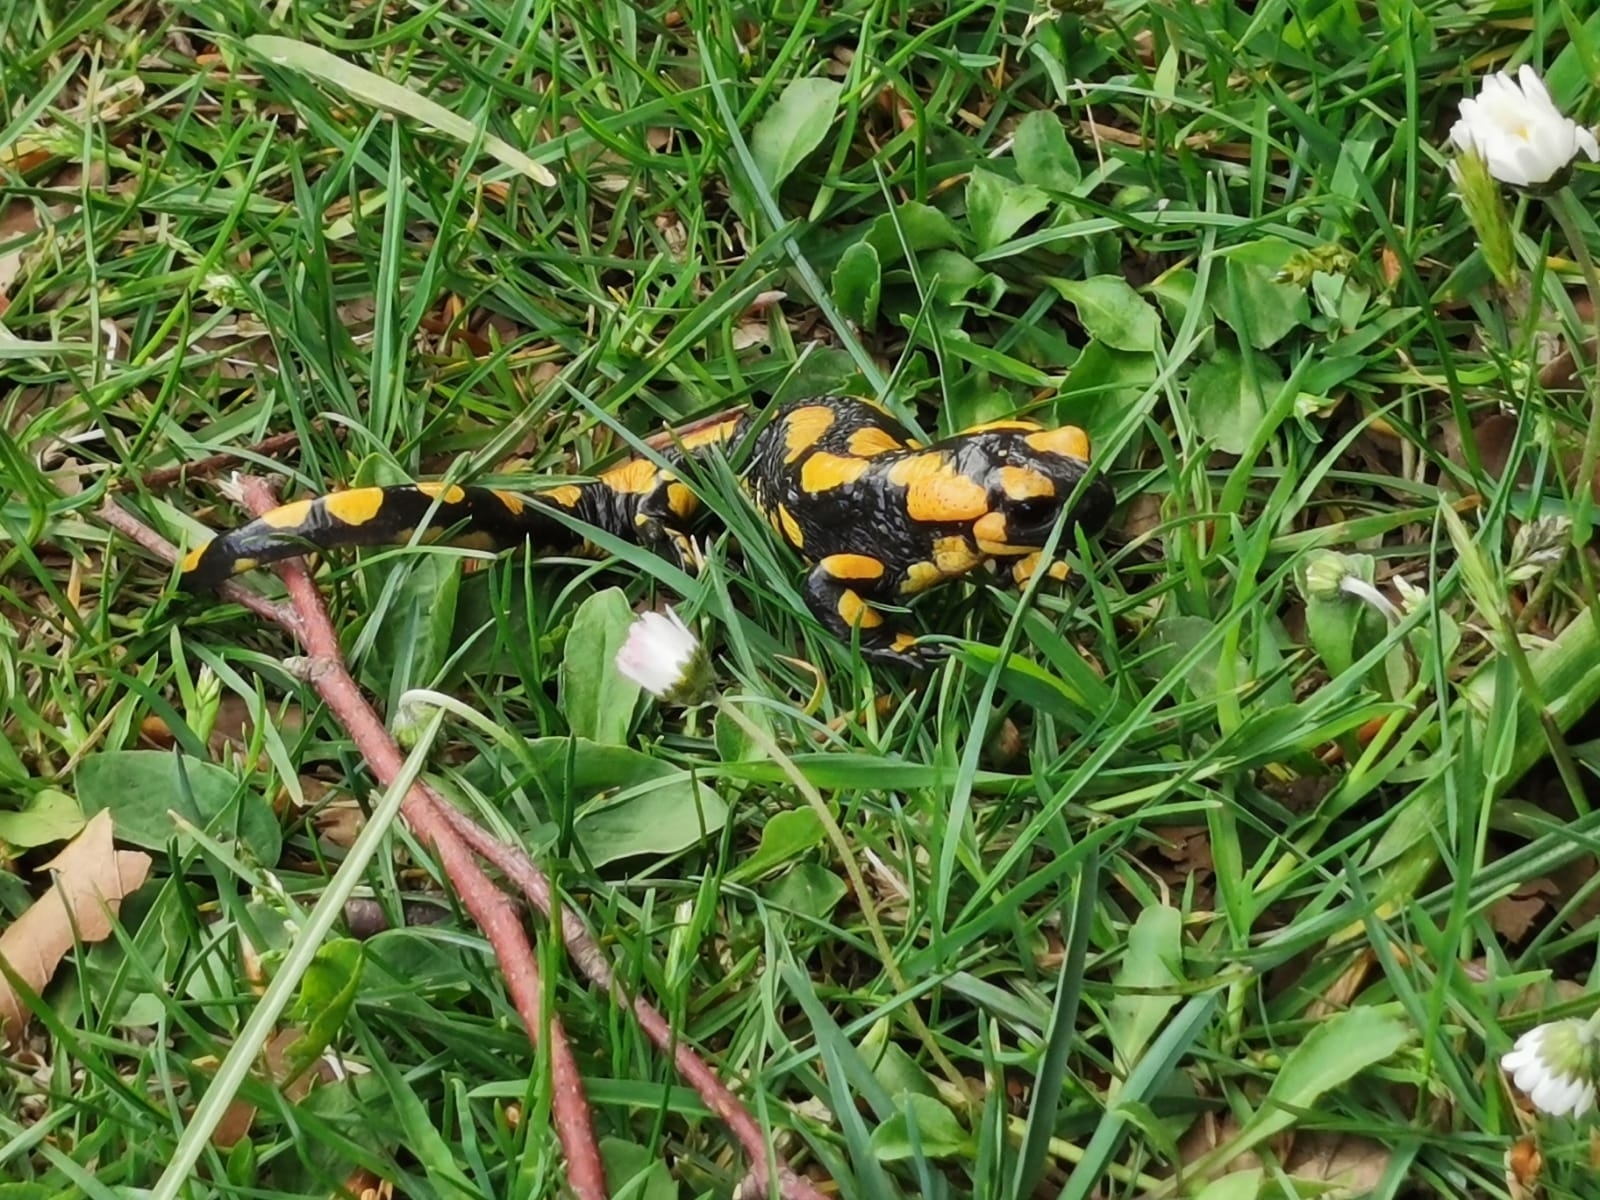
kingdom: Animalia
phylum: Chordata
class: Amphibia
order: Caudata
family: Salamandridae
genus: Salamandra
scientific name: Salamandra salamandra
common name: Fire salamander
